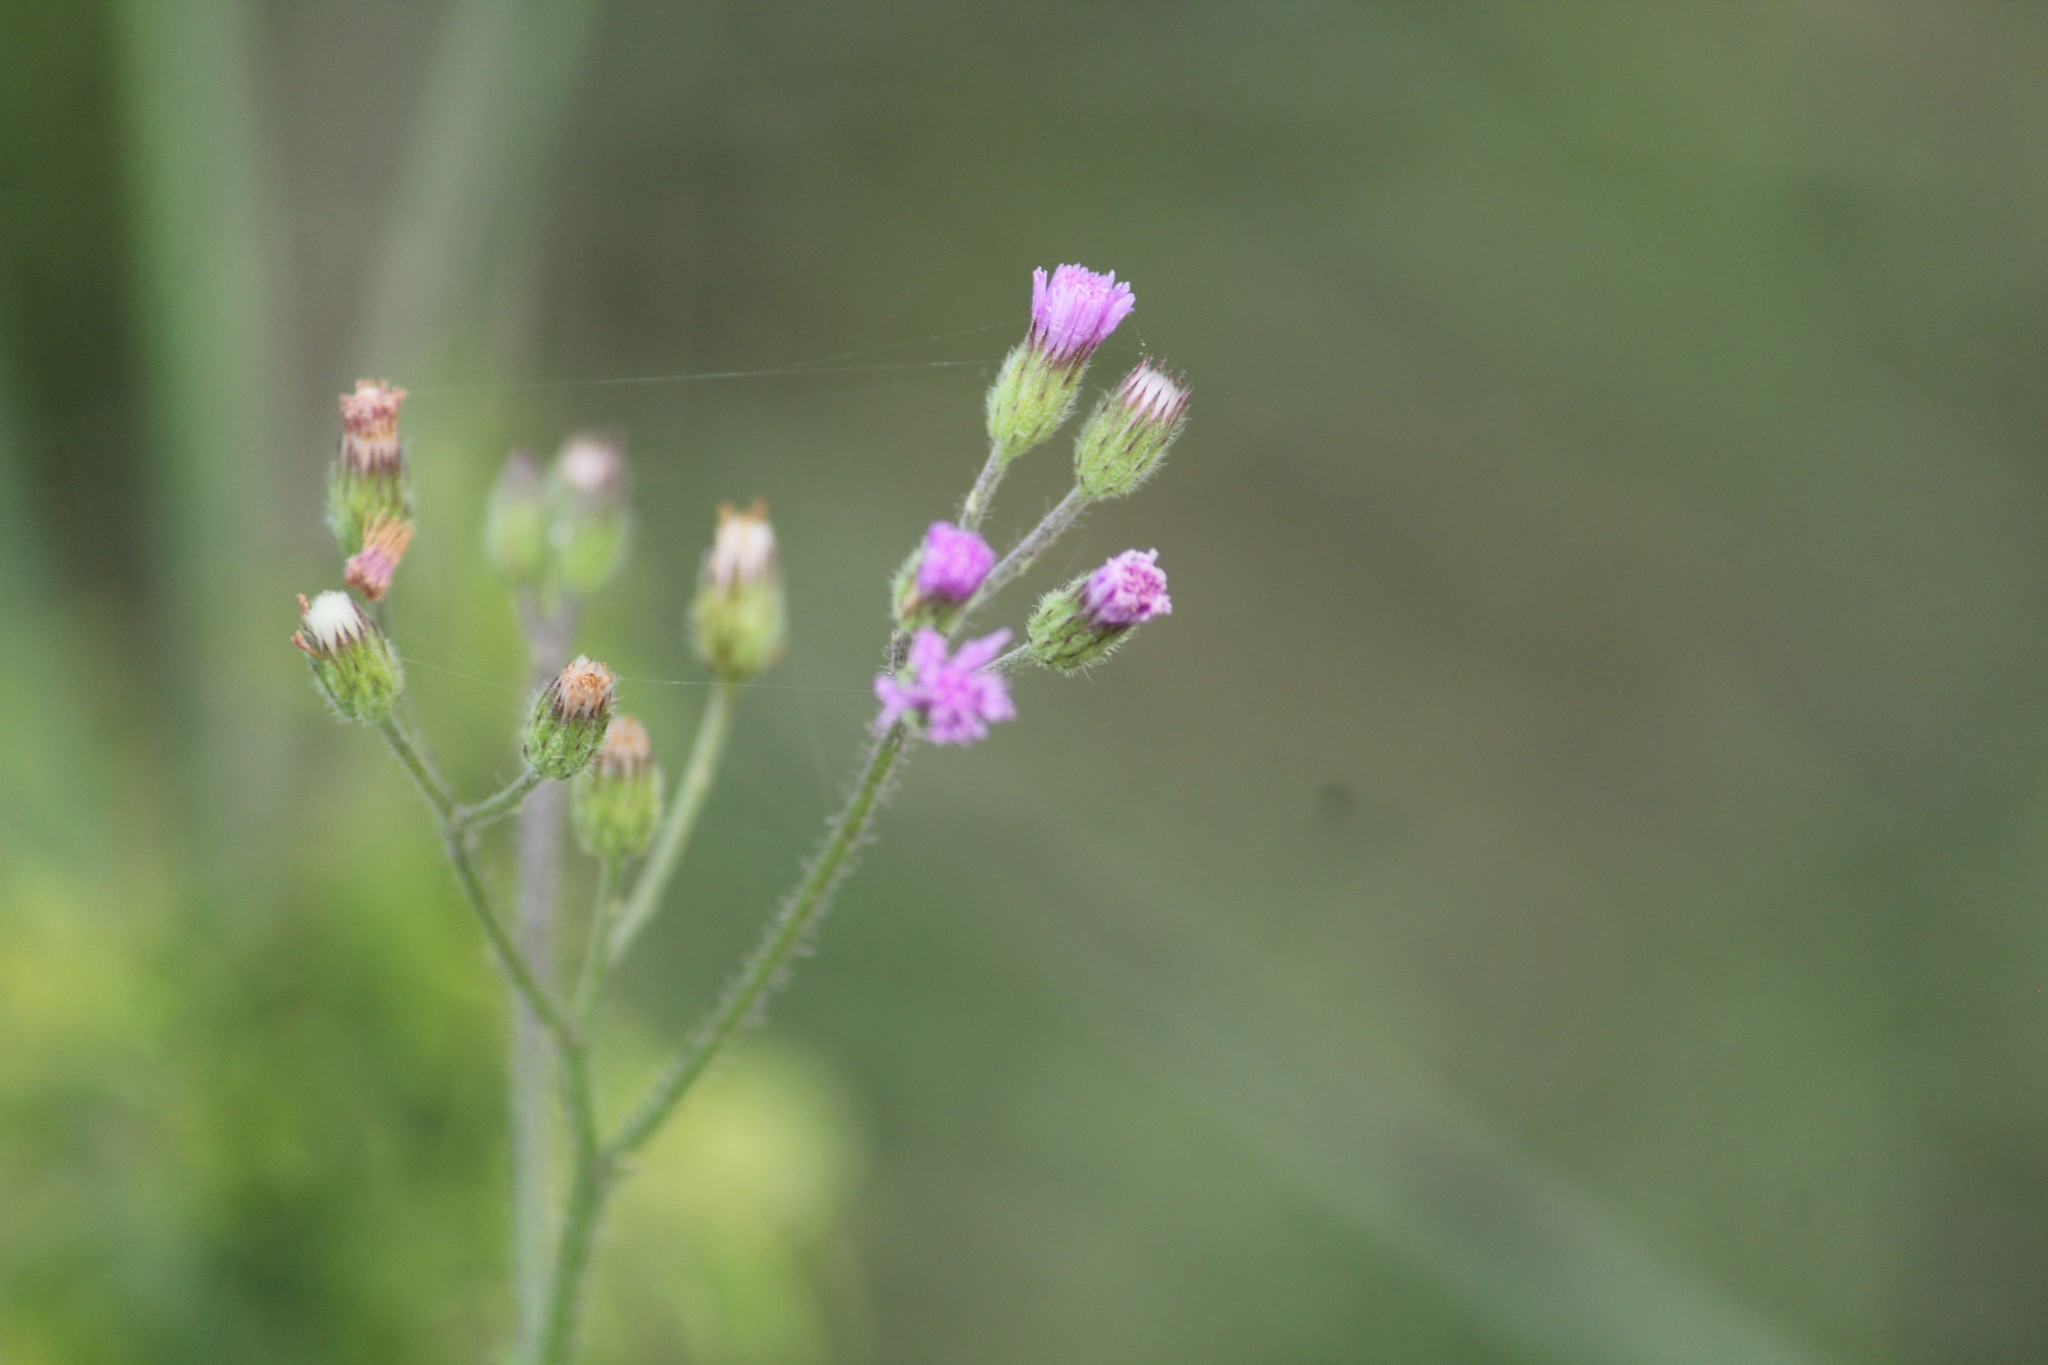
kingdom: Plantae
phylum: Tracheophyta
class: Magnoliopsida
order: Asterales
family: Asteraceae
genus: Cyanthillium
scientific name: Cyanthillium cinereum
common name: Little ironweed
